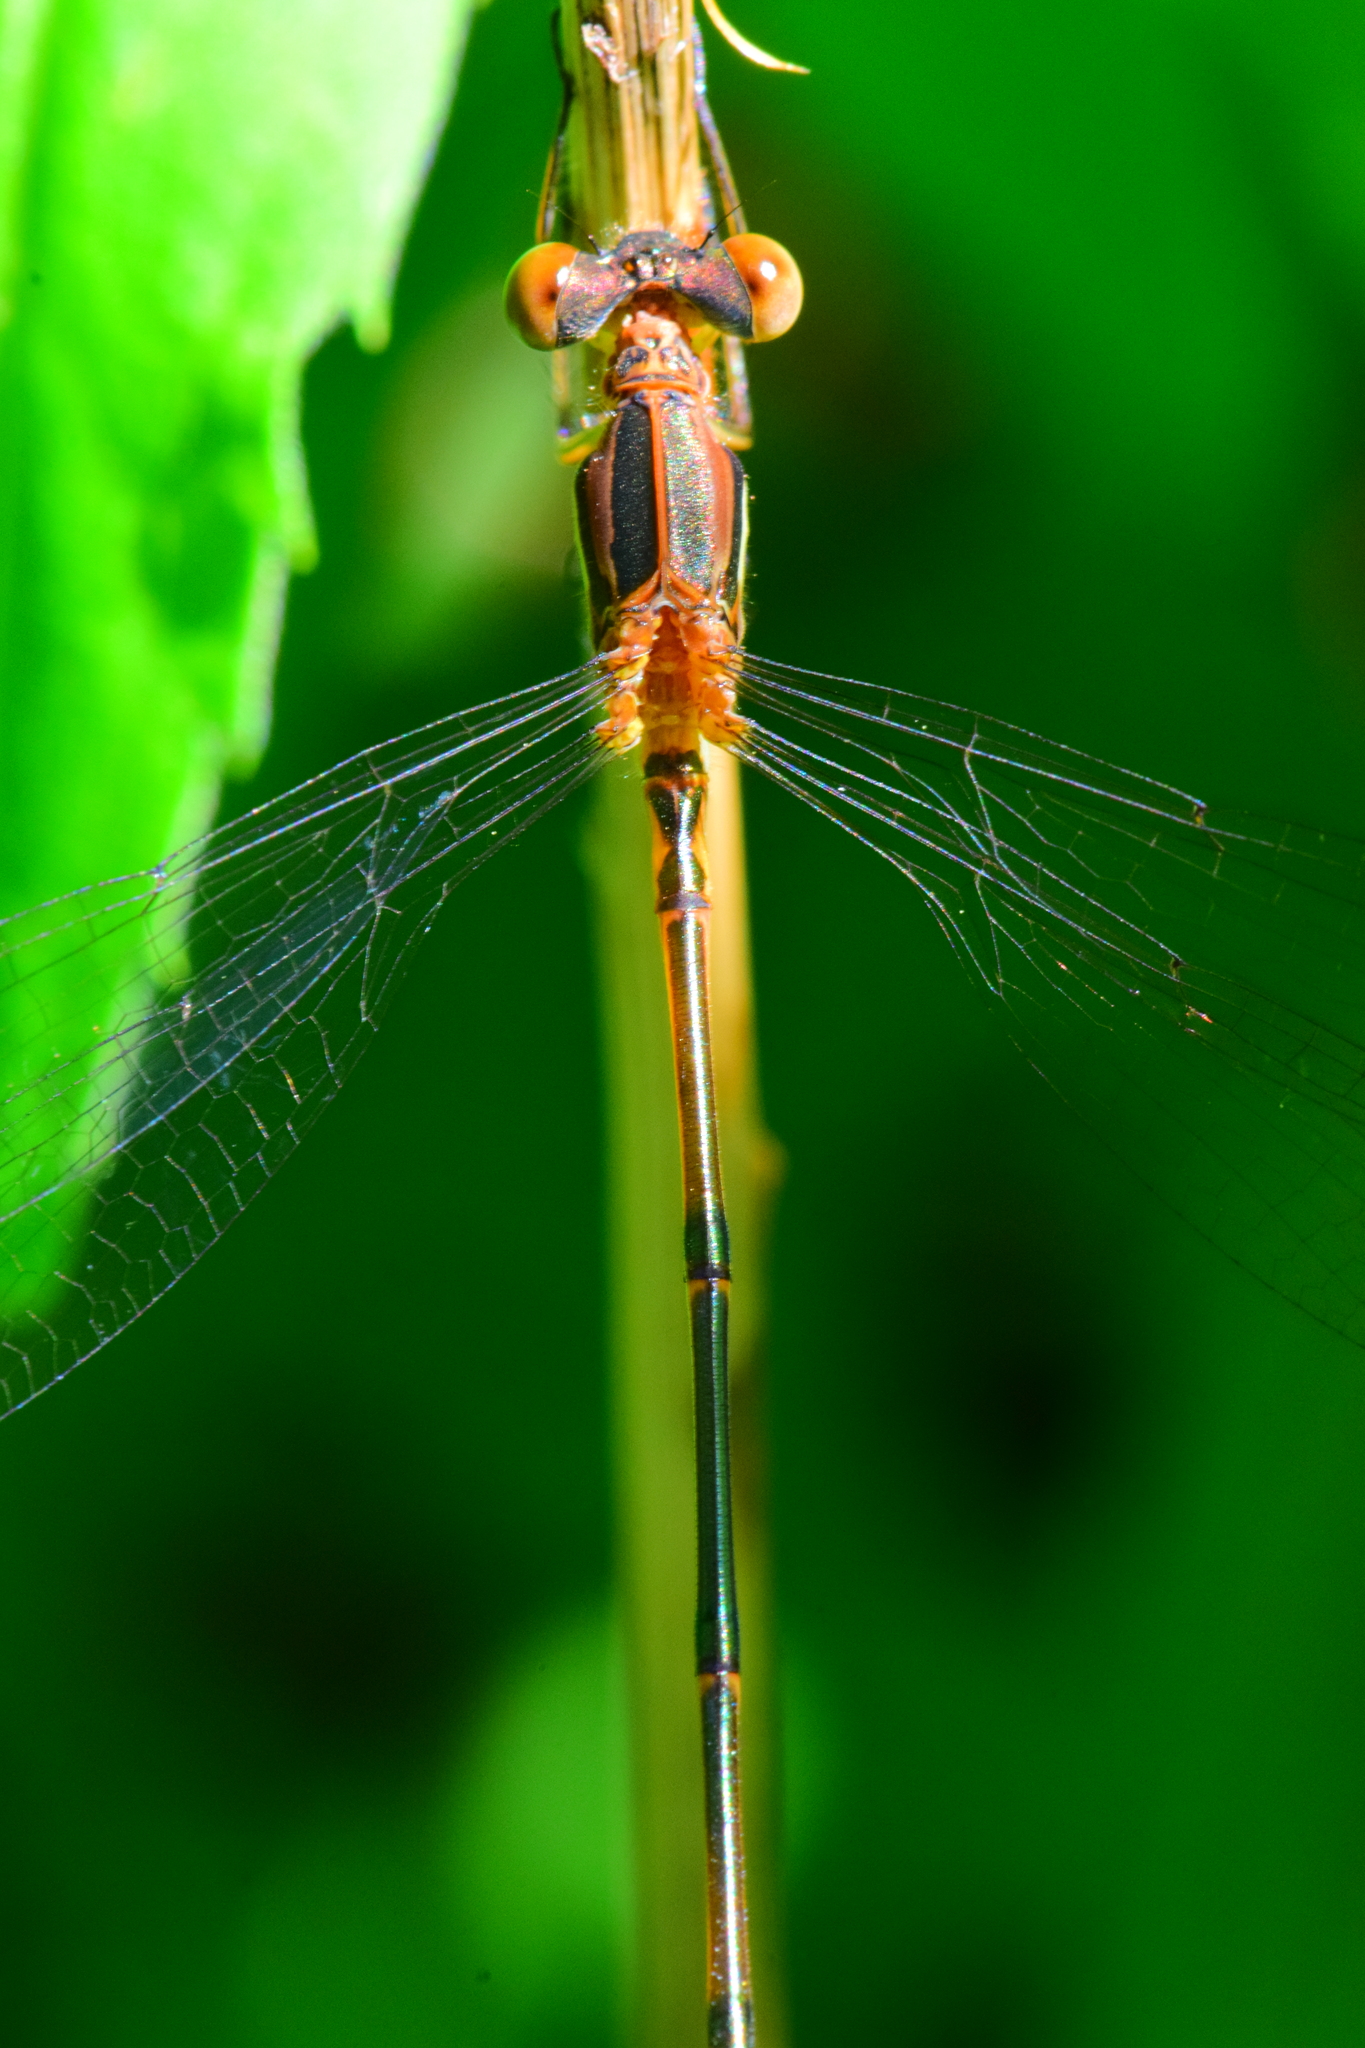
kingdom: Animalia
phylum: Arthropoda
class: Insecta
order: Odonata
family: Lestidae
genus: Lestes
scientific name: Lestes rectangularis
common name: Slender spreadwing
